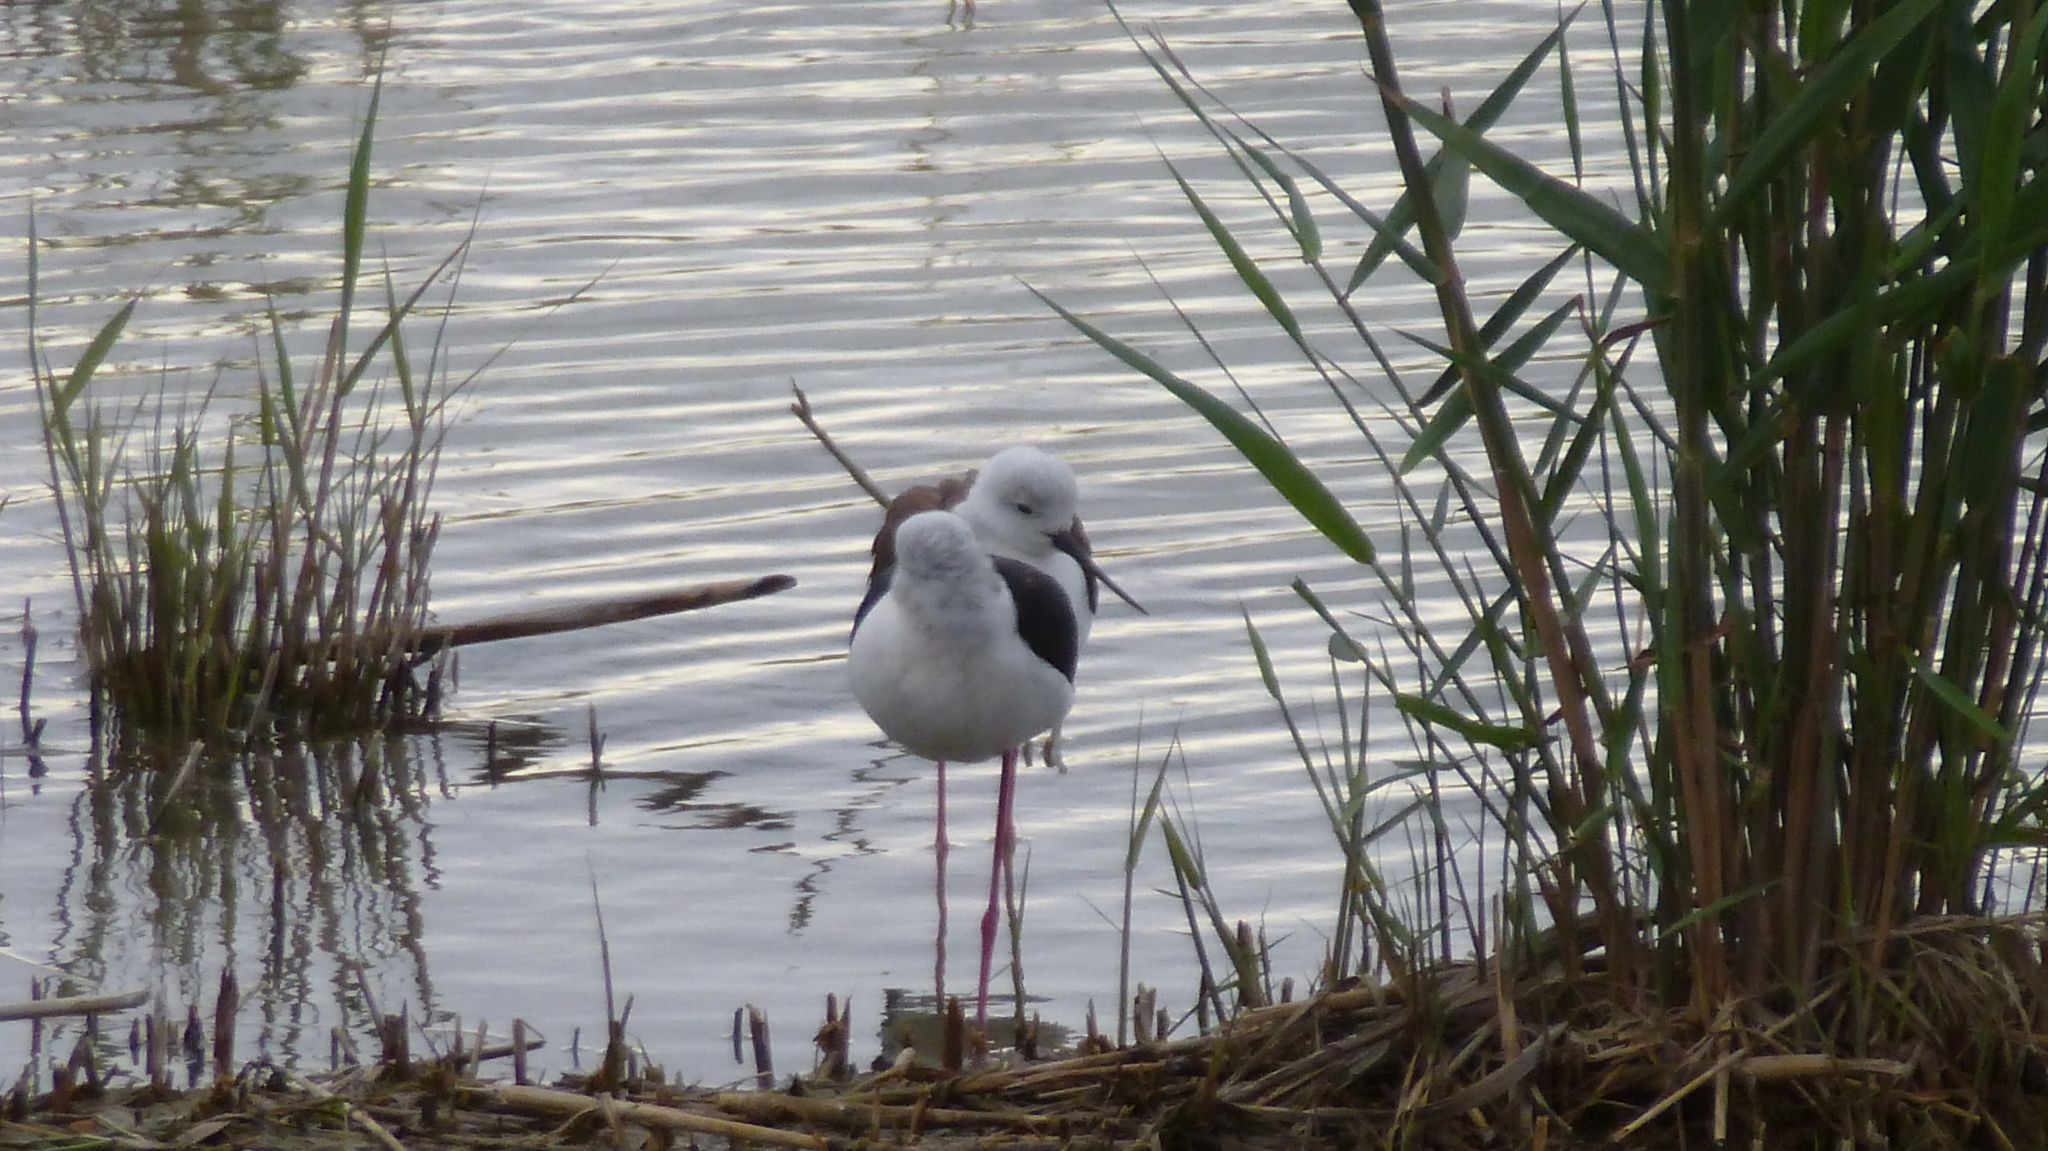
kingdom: Animalia
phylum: Chordata
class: Aves
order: Charadriiformes
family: Recurvirostridae
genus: Himantopus
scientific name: Himantopus himantopus
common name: Black-winged stilt
